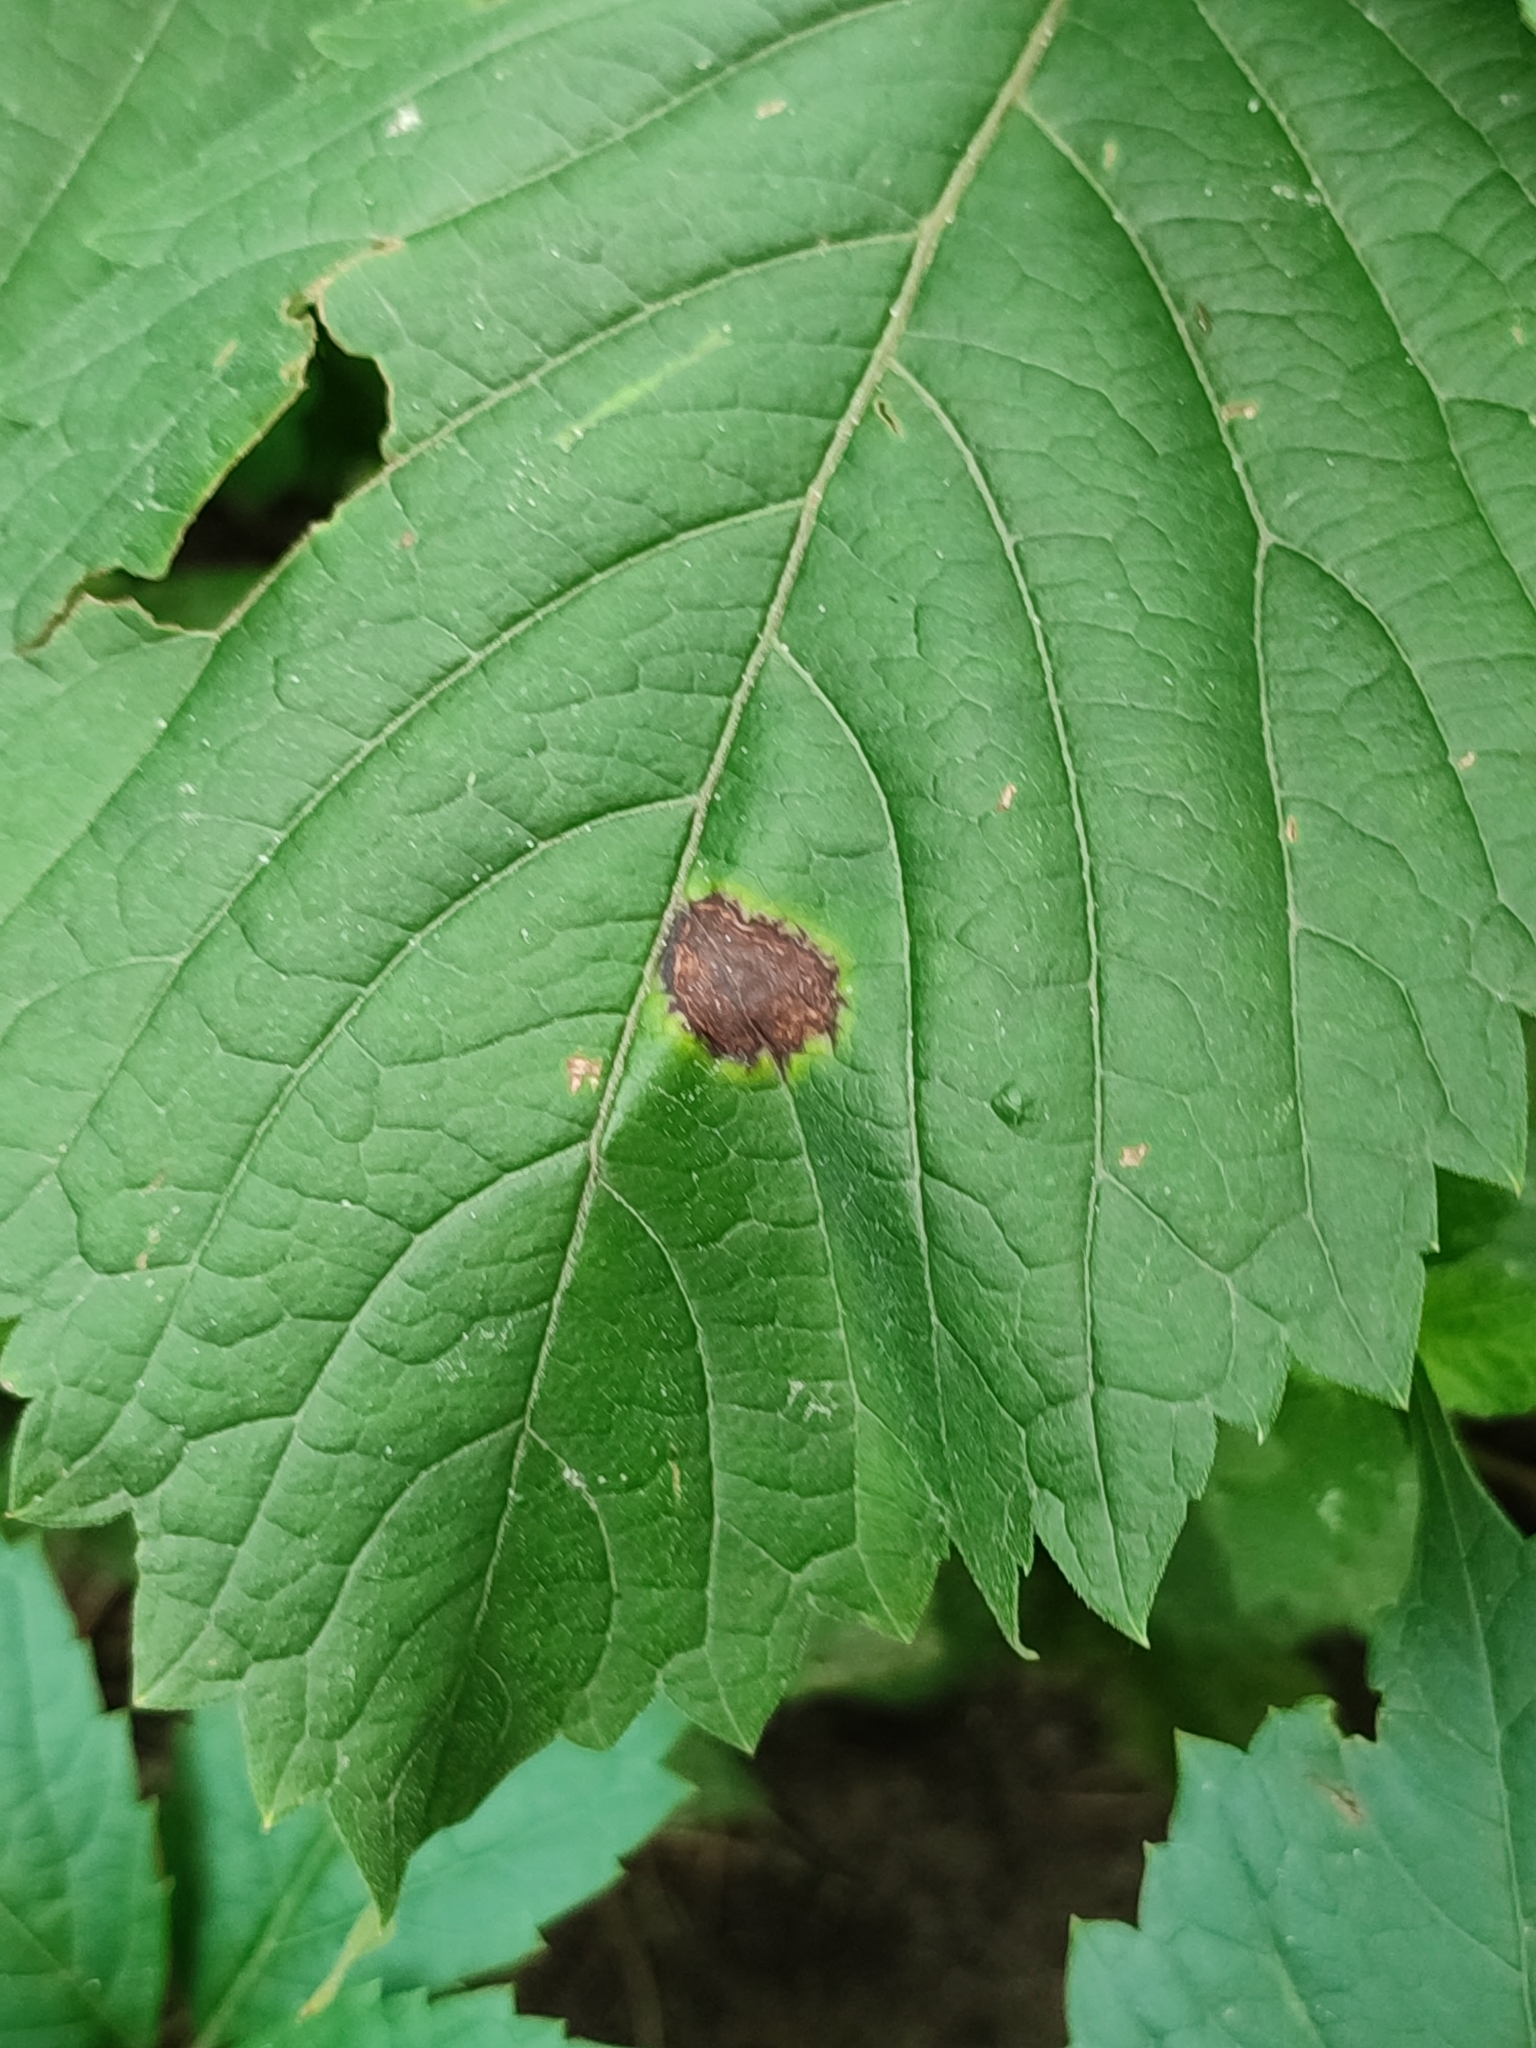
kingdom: Plantae
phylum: Tracheophyta
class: Magnoliopsida
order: Vitales
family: Vitaceae
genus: Parthenocissus
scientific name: Parthenocissus inserta
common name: False virginia-creeper
